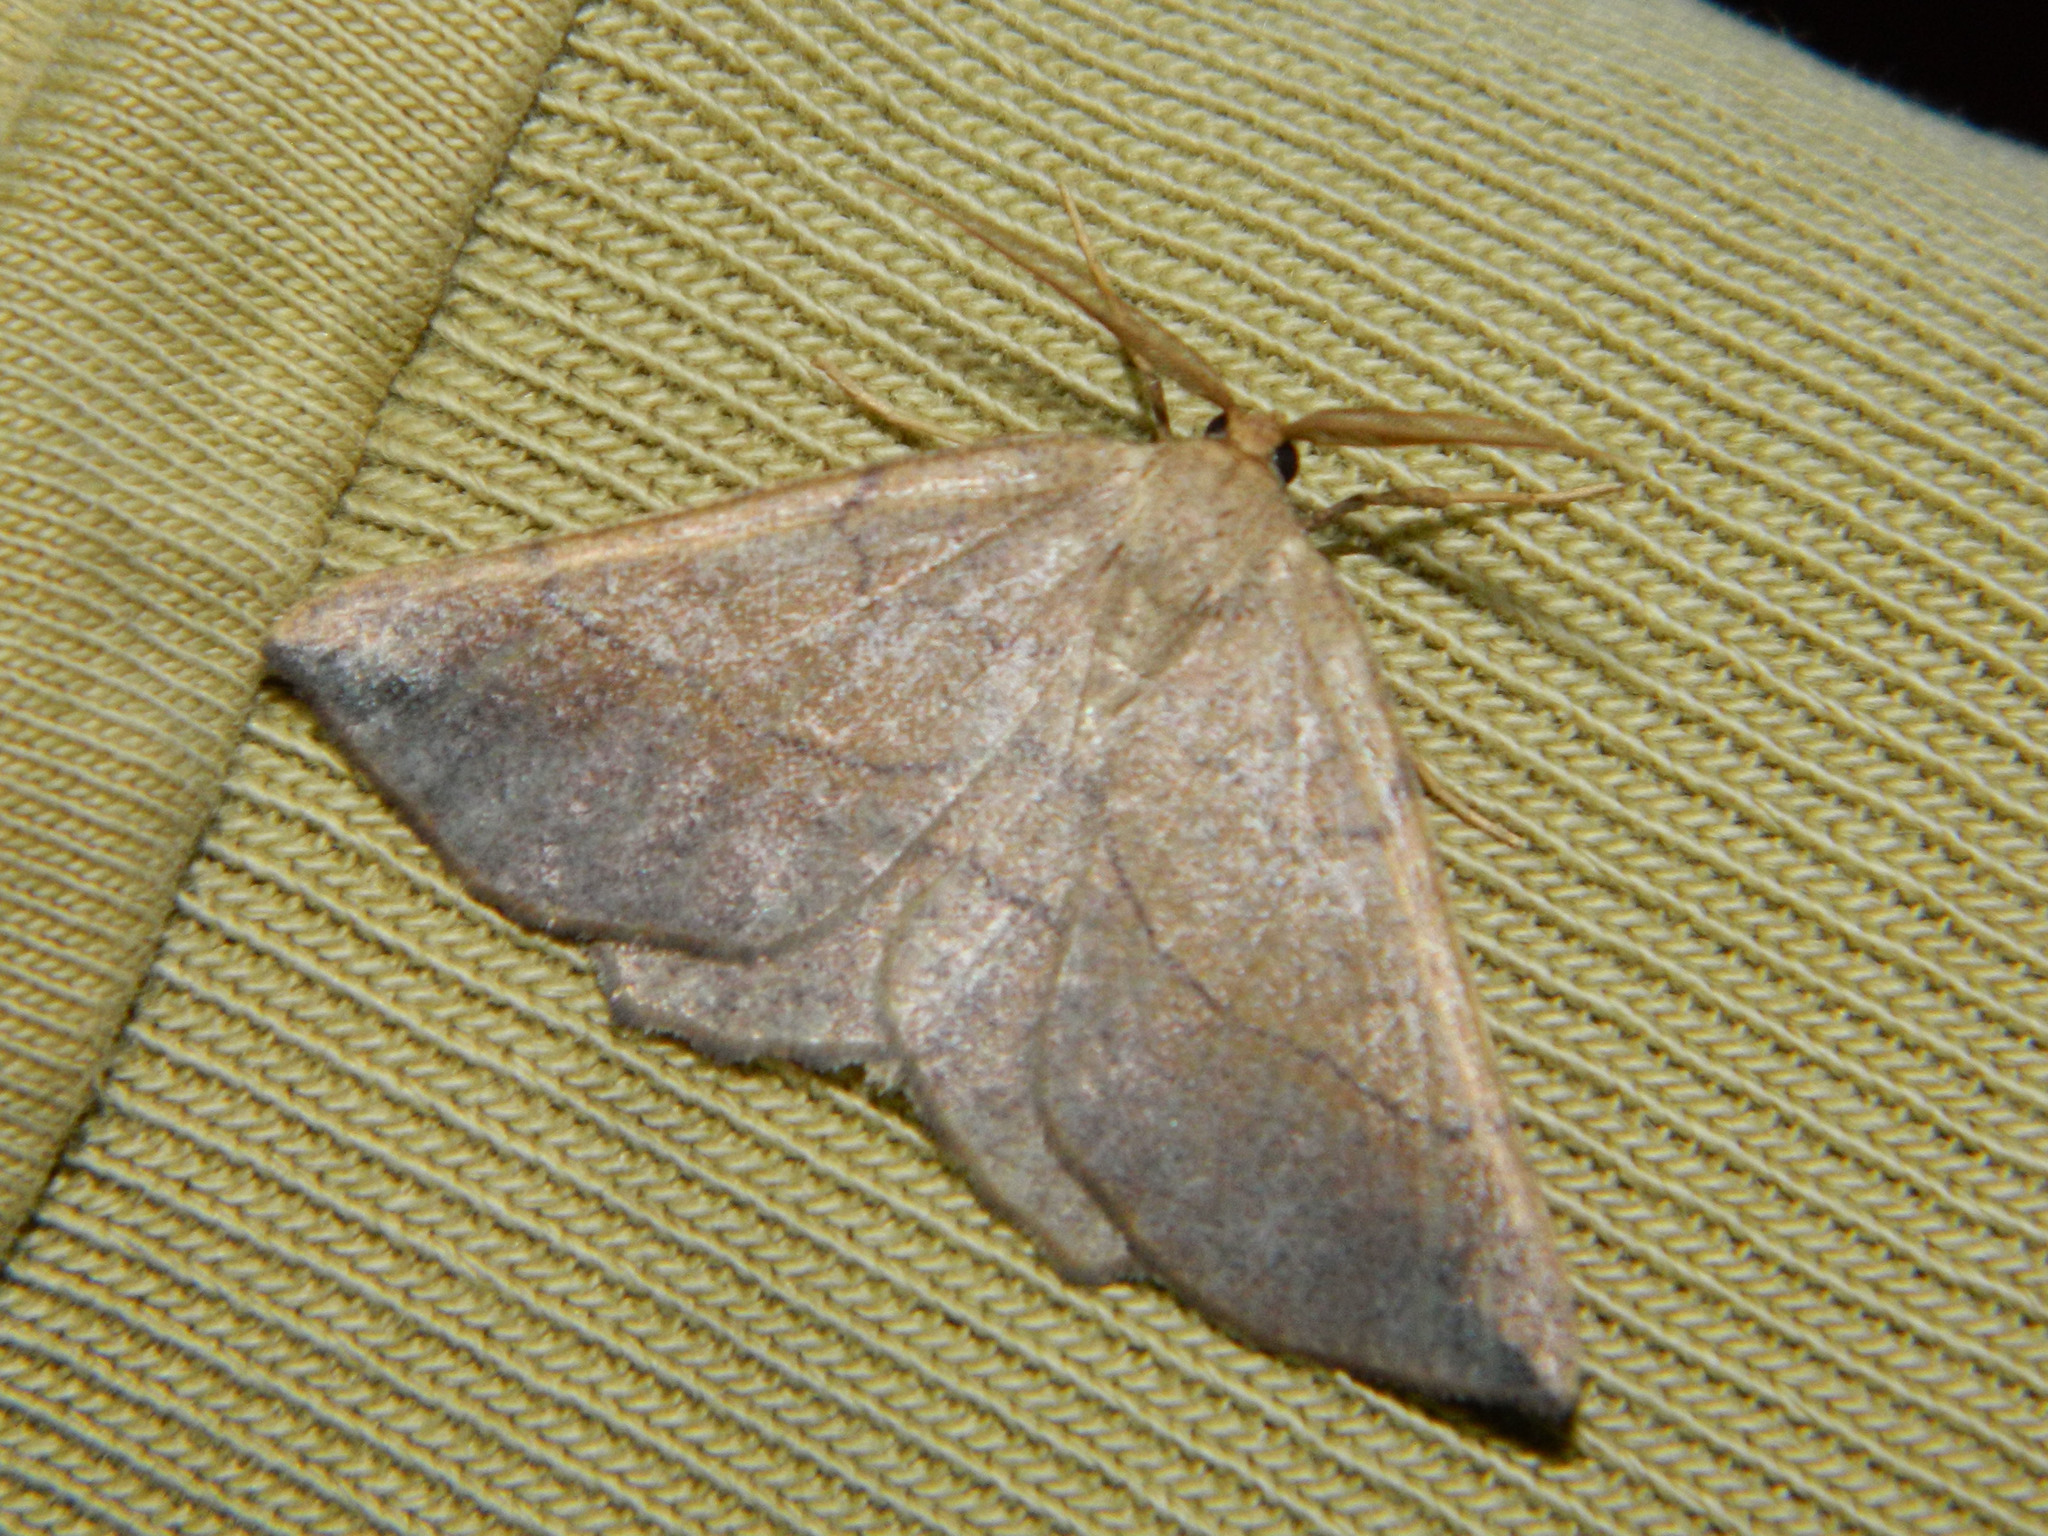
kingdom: Animalia
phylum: Arthropoda
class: Insecta
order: Lepidoptera
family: Geometridae
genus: Euchlaena
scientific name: Euchlaena madusaria
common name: Scrub euchlaena moth
